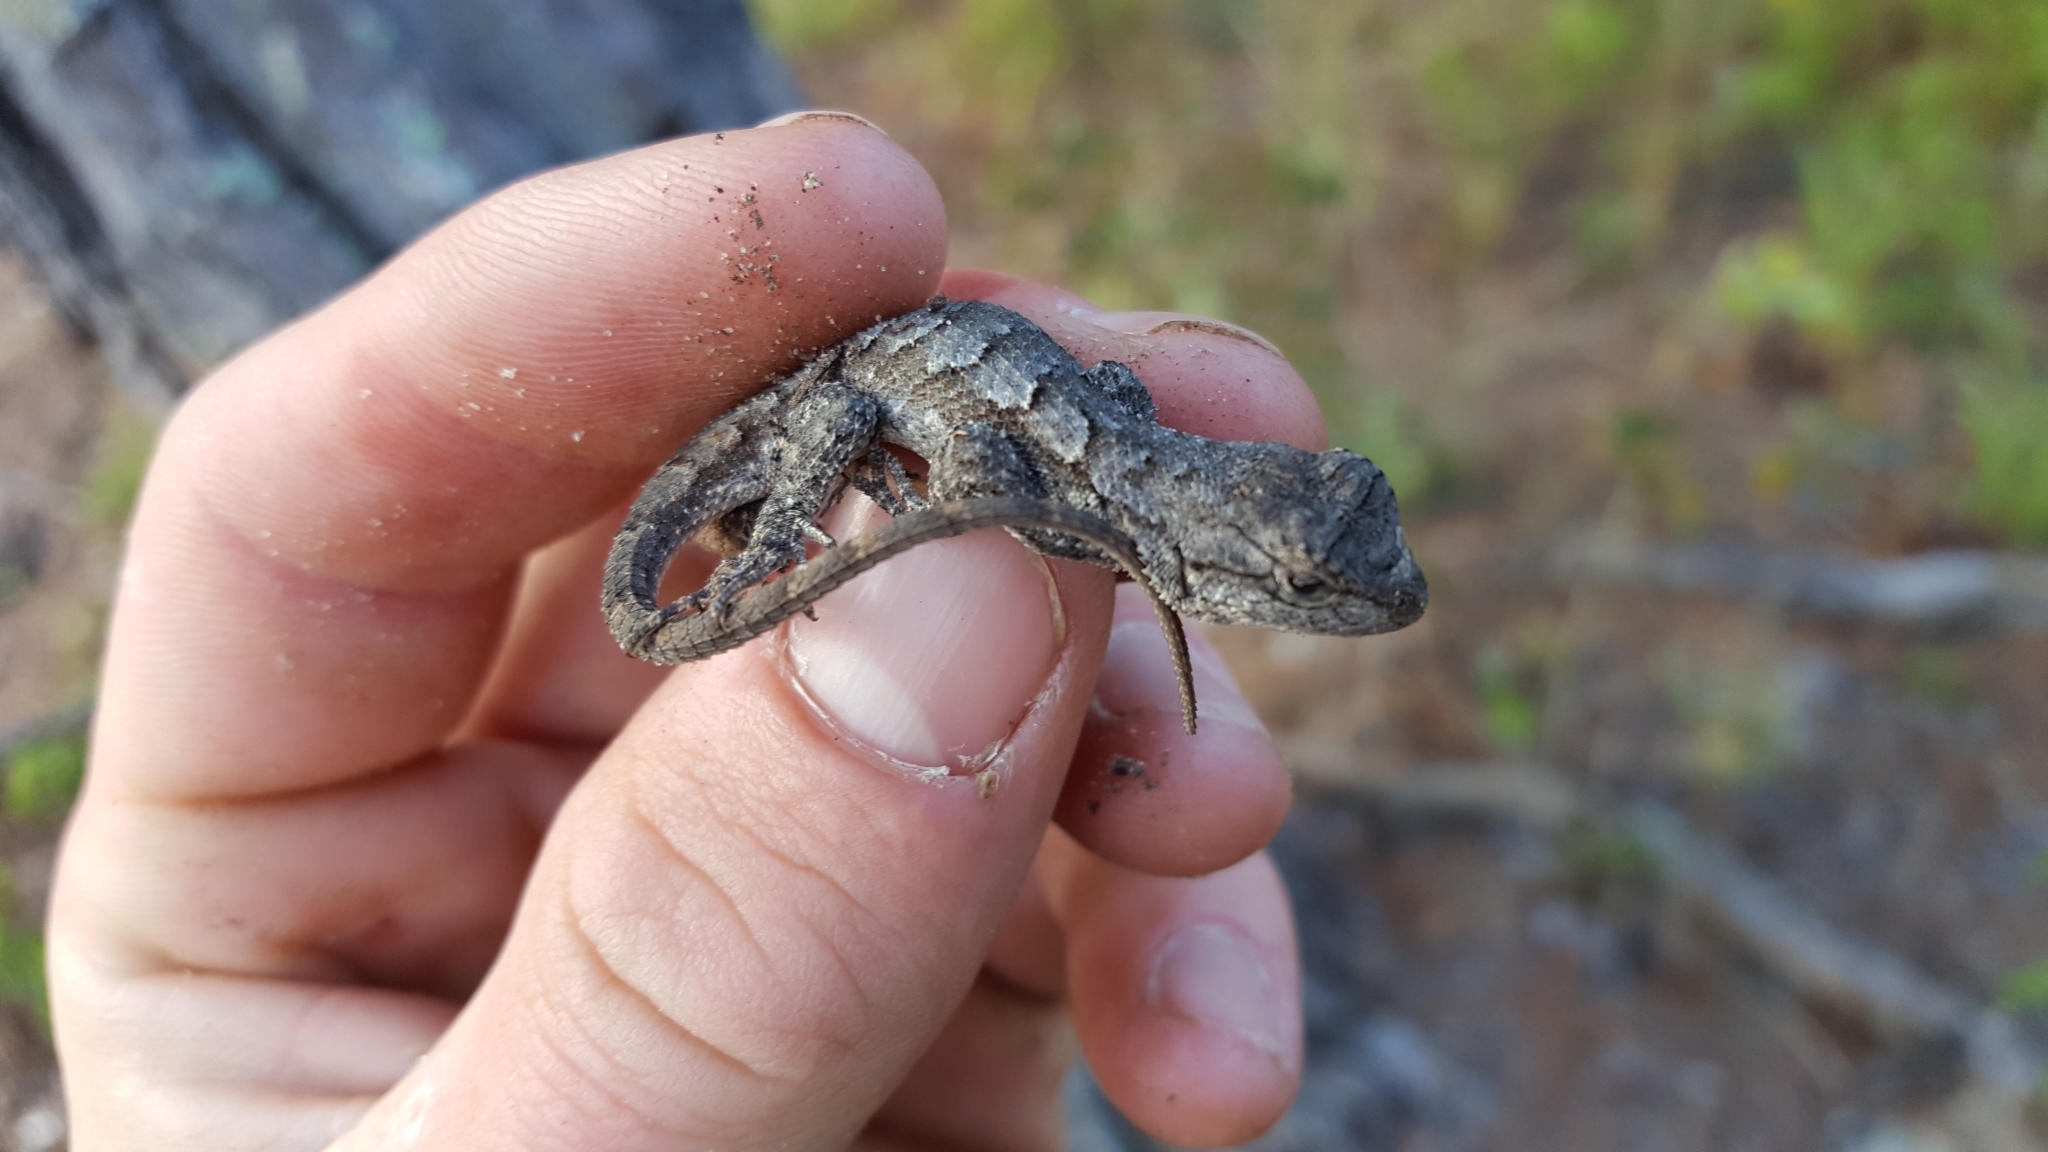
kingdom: Animalia
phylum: Chordata
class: Squamata
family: Phrynosomatidae
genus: Sceloporus
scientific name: Sceloporus consobrinus
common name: Southern prairie lizard
